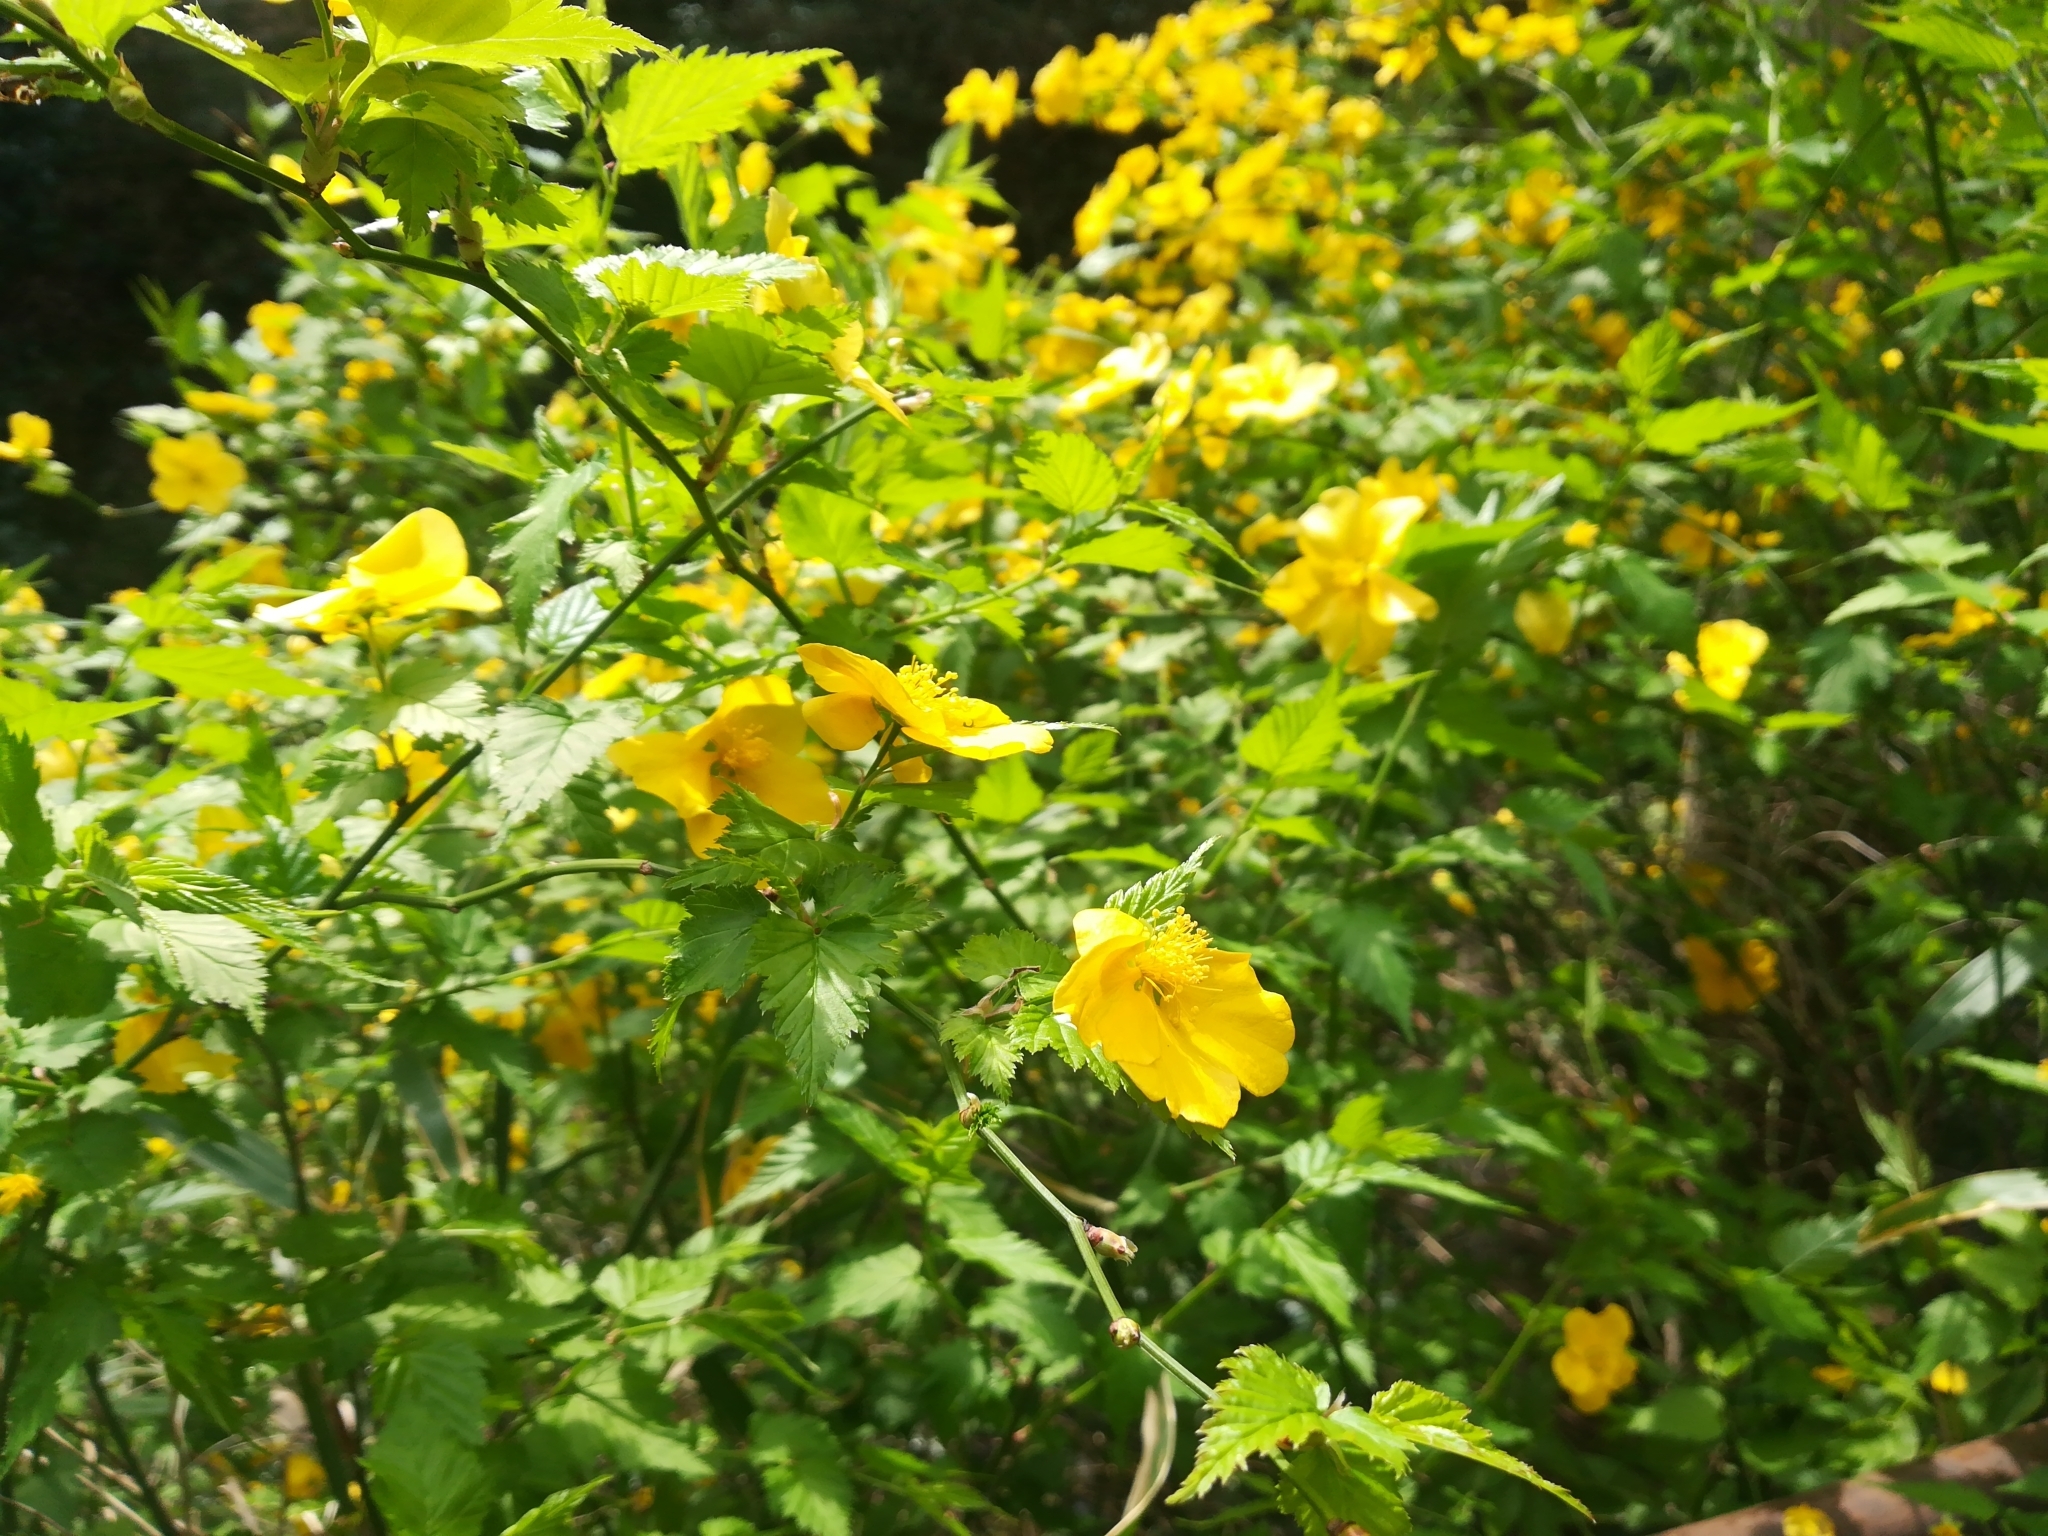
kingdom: Plantae
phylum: Tracheophyta
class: Magnoliopsida
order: Rosales
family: Rosaceae
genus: Kerria
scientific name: Kerria japonica
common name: Japanese kerria
